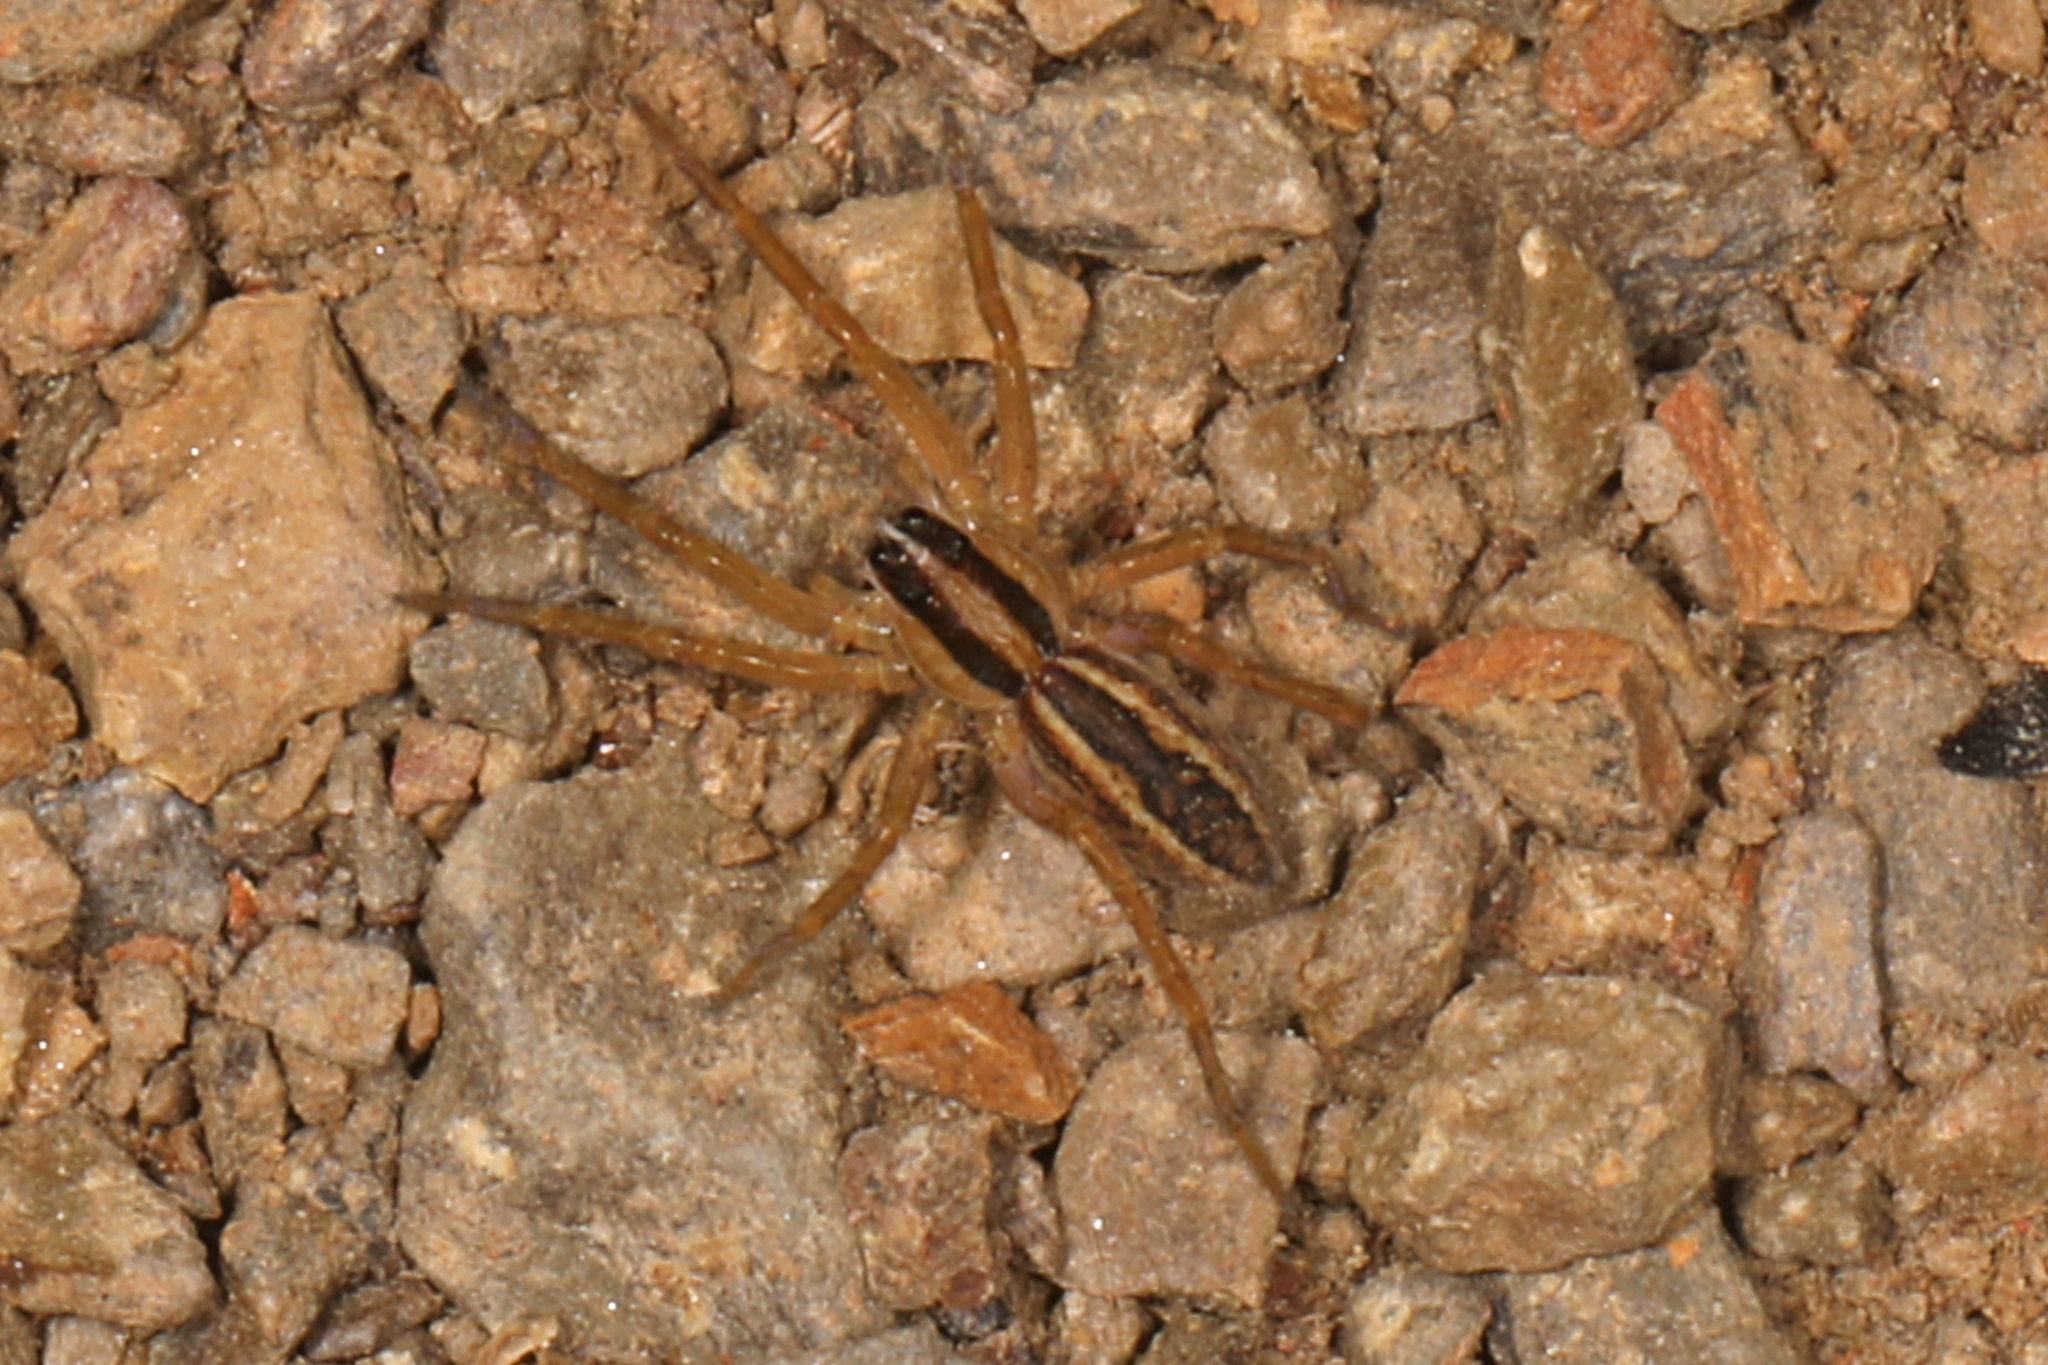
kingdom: Animalia
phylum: Arthropoda
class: Arachnida
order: Araneae
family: Lycosidae
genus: Rabidosa
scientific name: Rabidosa rabida
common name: Rabid wolf spider
